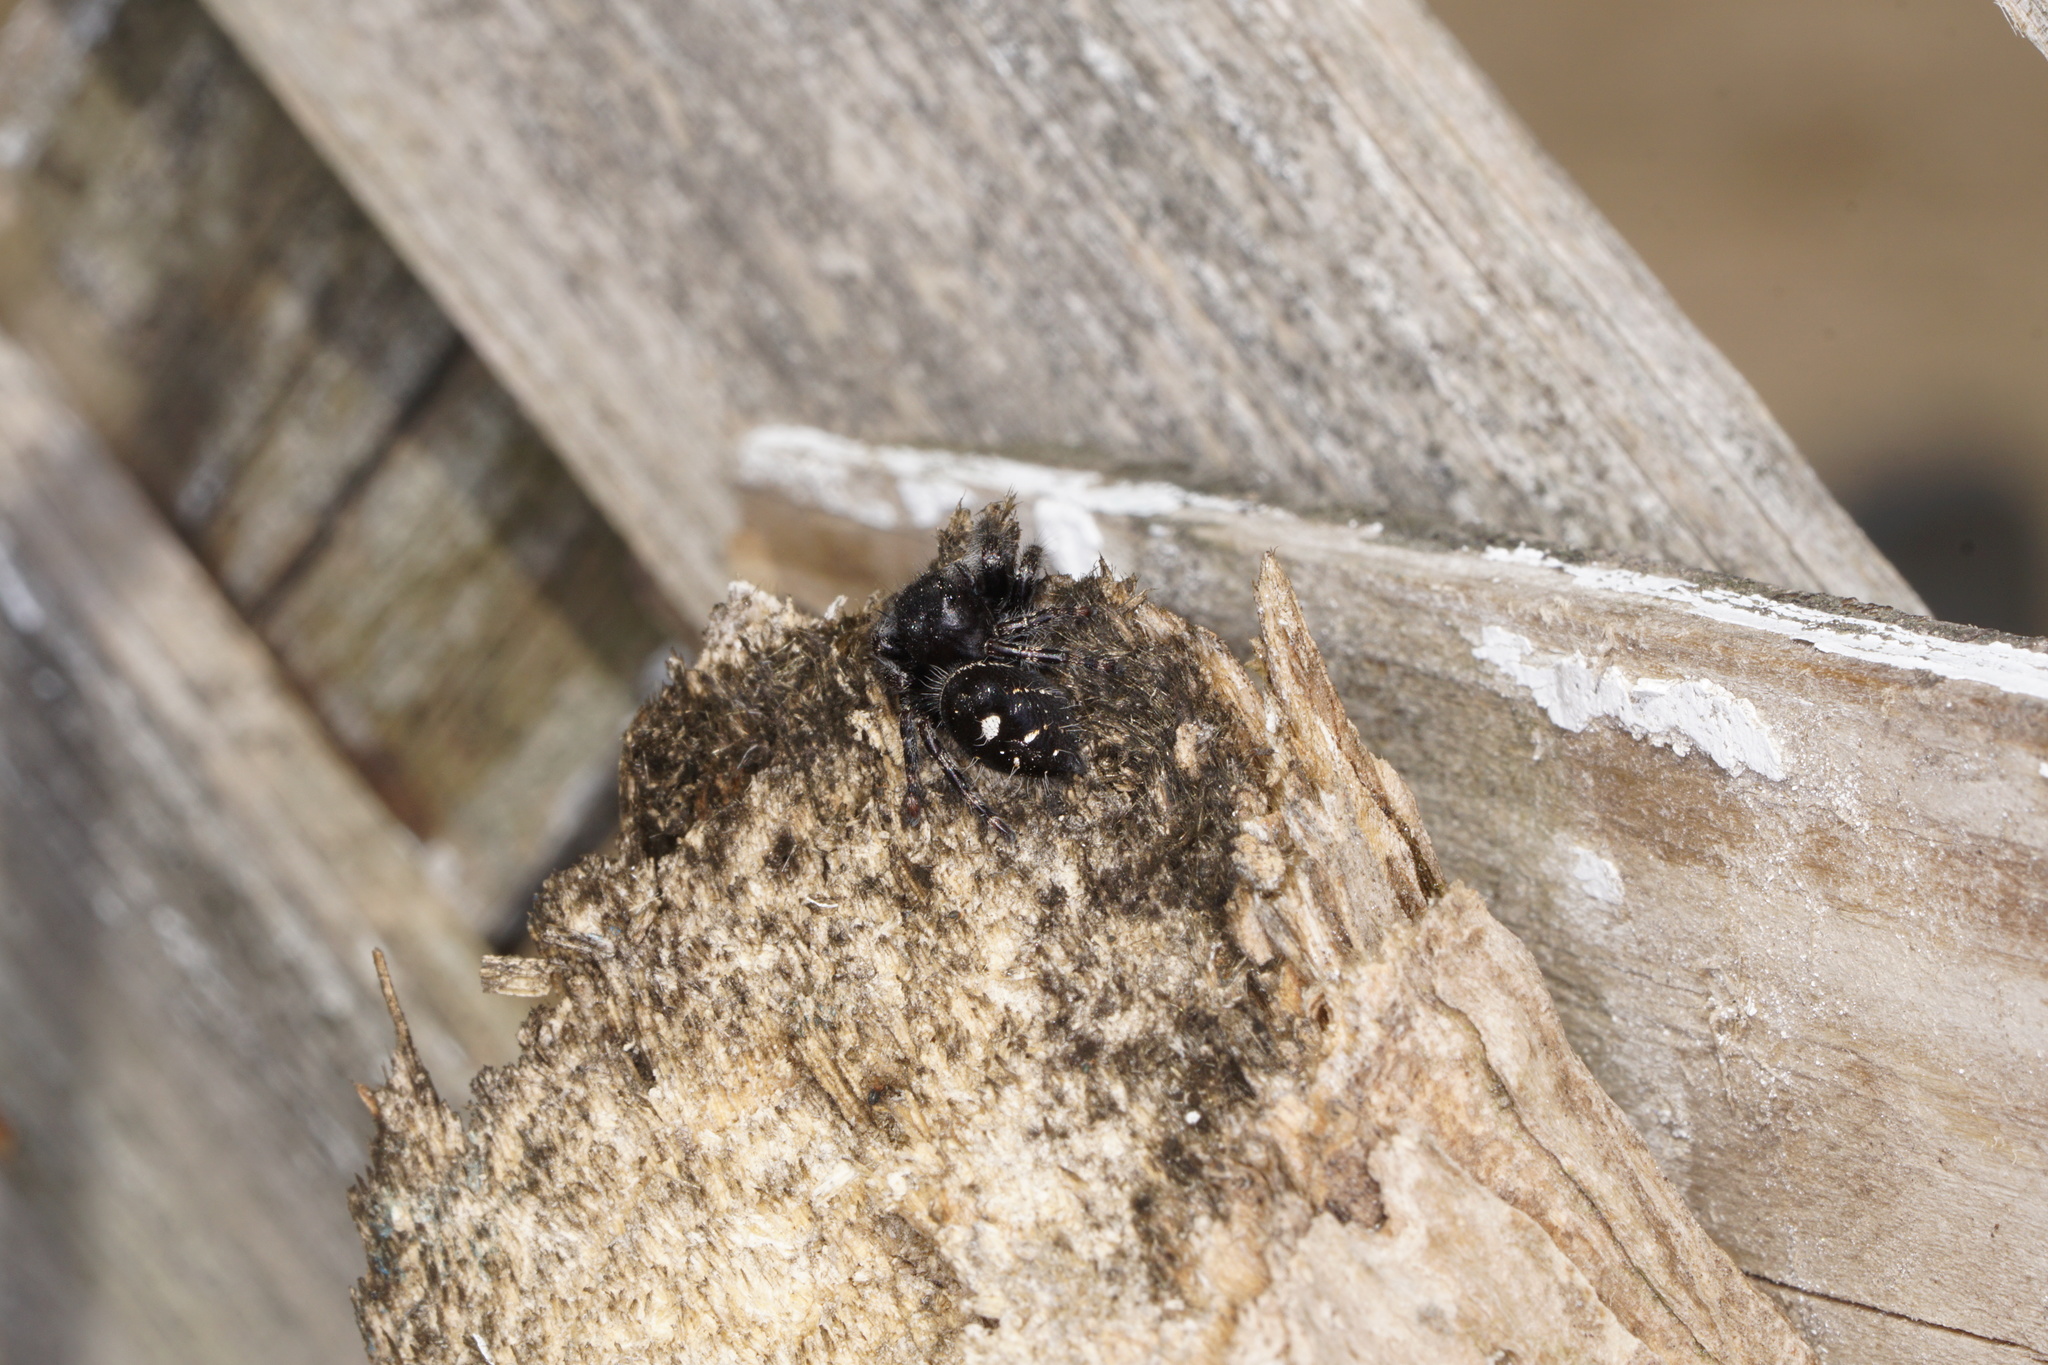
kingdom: Animalia
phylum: Arthropoda
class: Arachnida
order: Araneae
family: Salticidae
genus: Phidippus
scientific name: Phidippus audax
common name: Bold jumper
